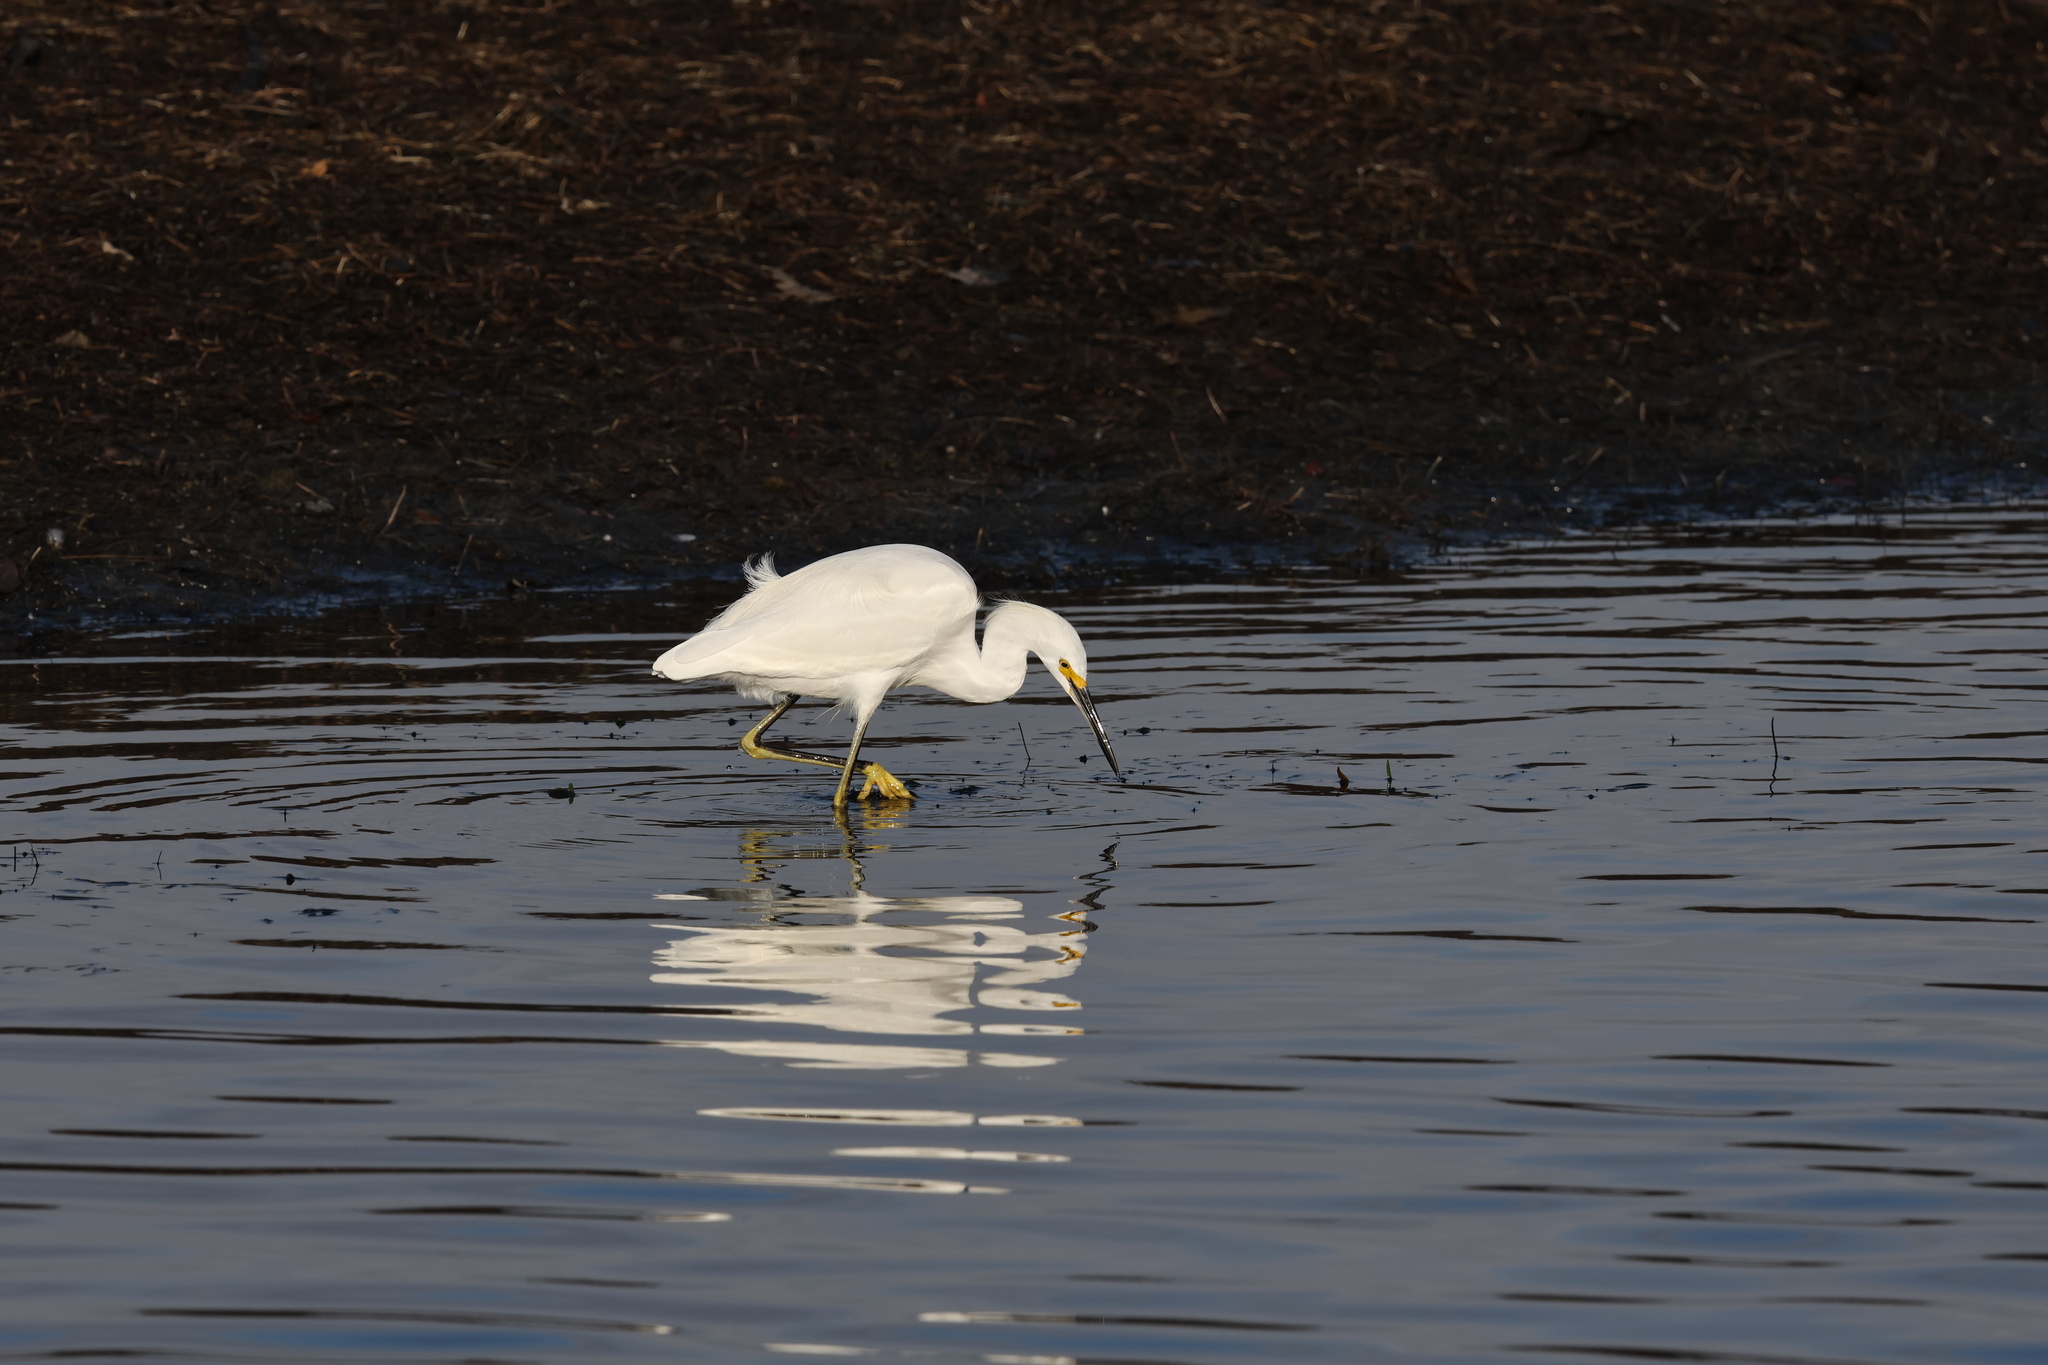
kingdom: Animalia
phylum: Chordata
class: Aves
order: Pelecaniformes
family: Ardeidae
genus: Egretta
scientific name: Egretta thula
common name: Snowy egret
